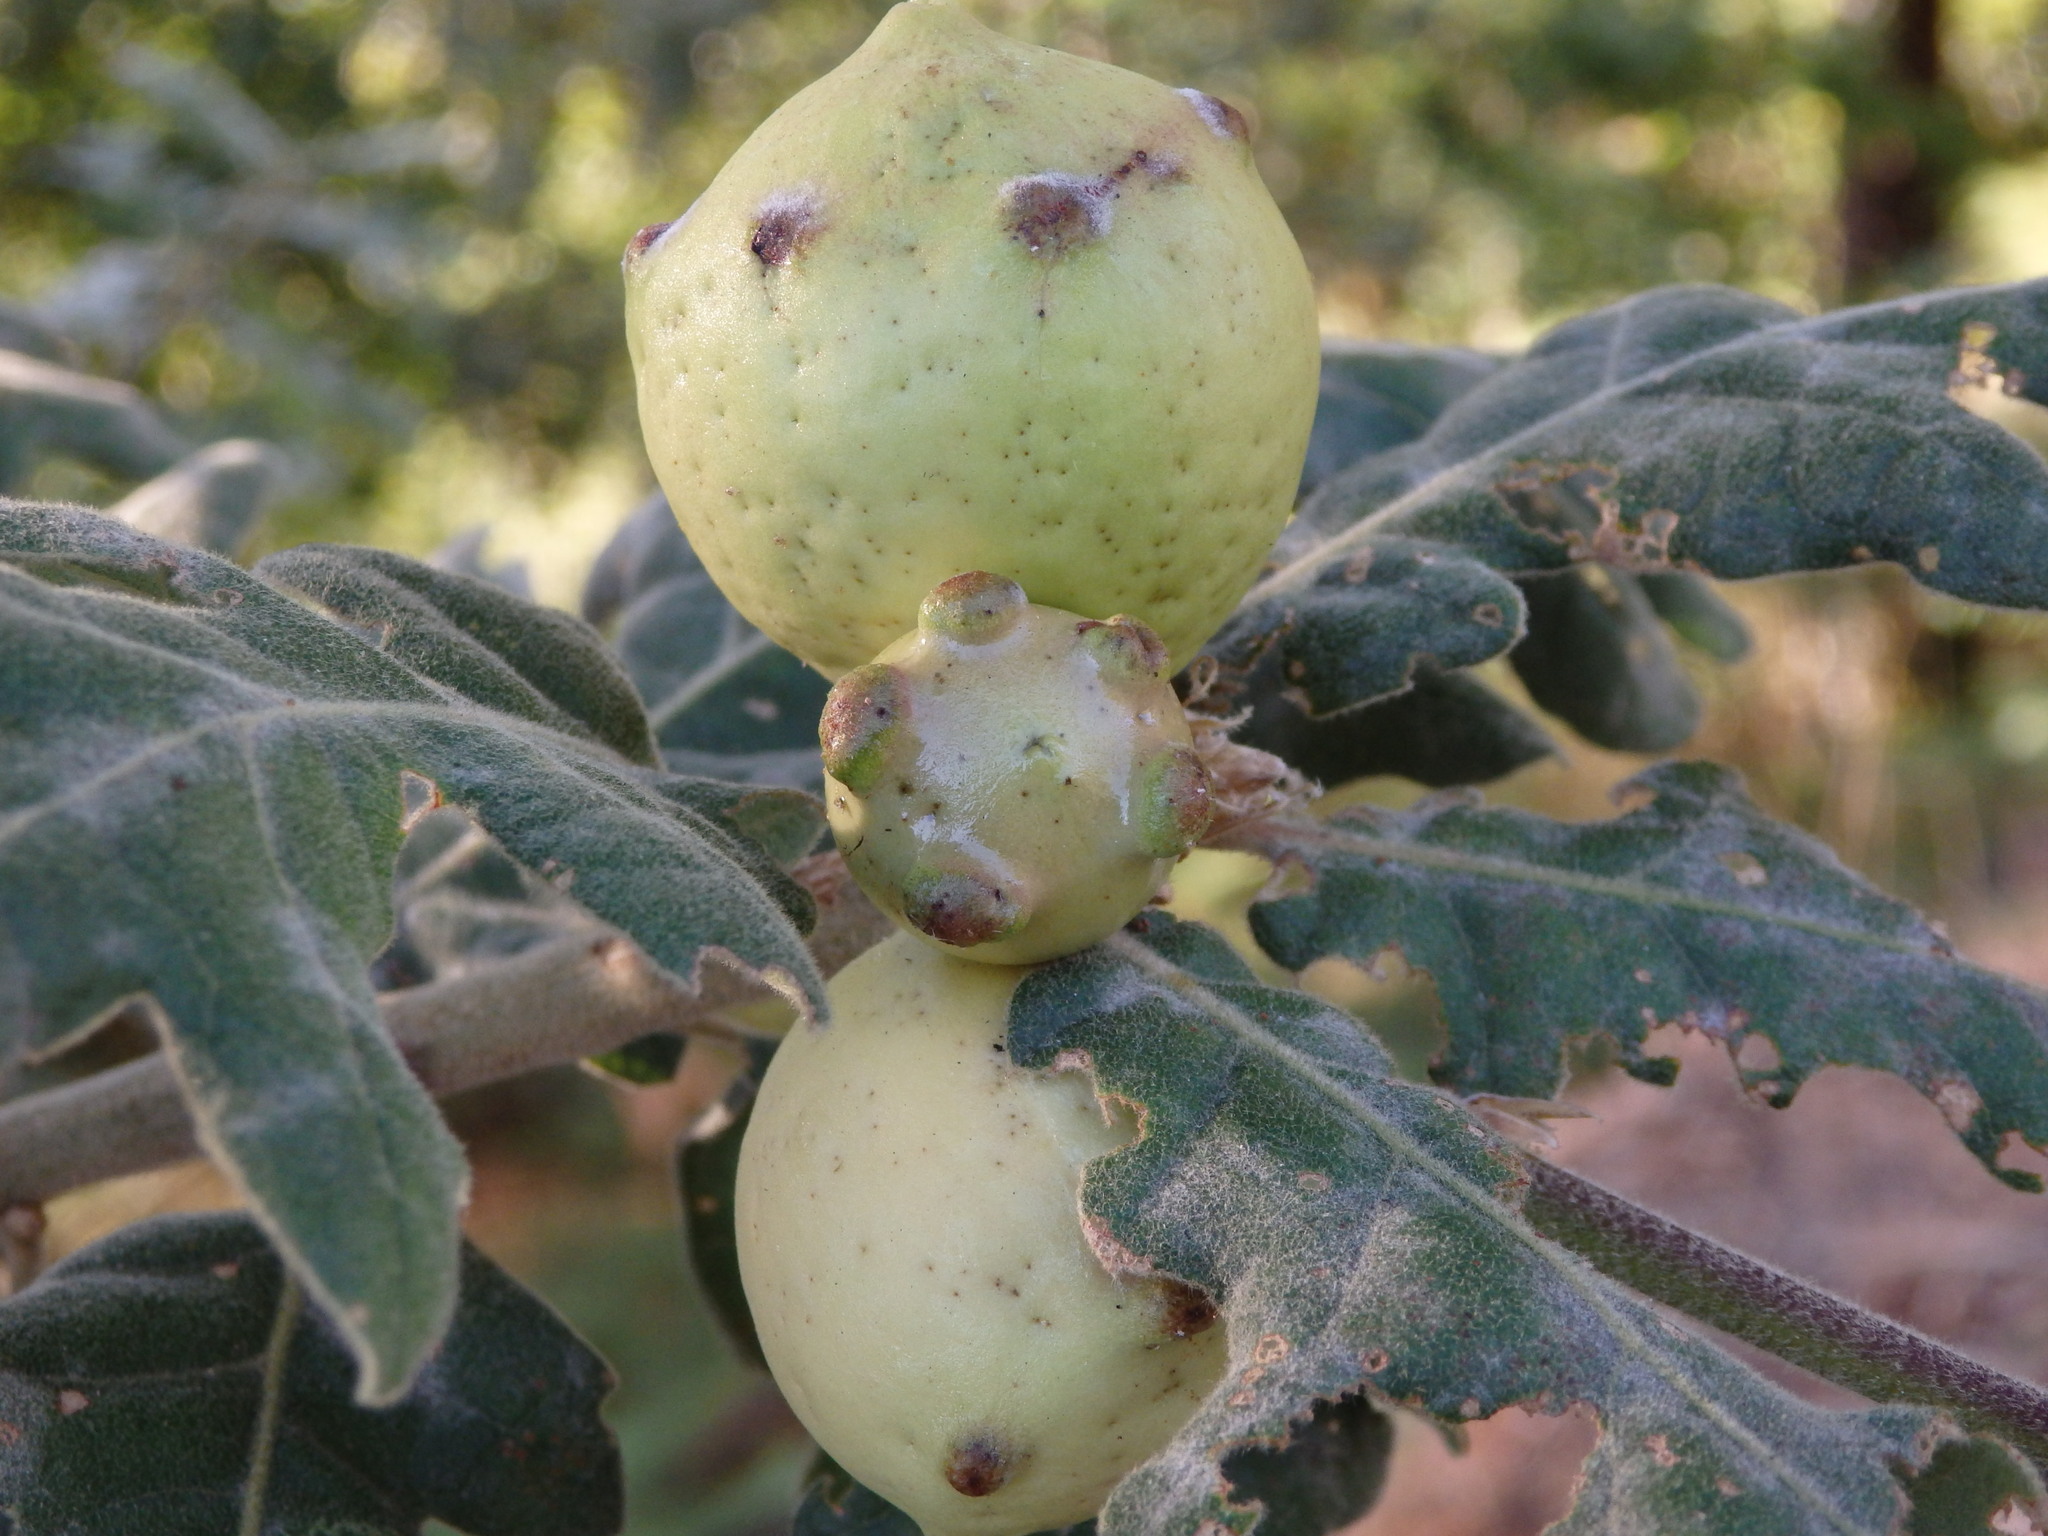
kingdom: Plantae
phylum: Tracheophyta
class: Magnoliopsida
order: Fagales
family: Fagaceae
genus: Quercus
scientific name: Quercus pyrenaica
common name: Pyrenean oak
